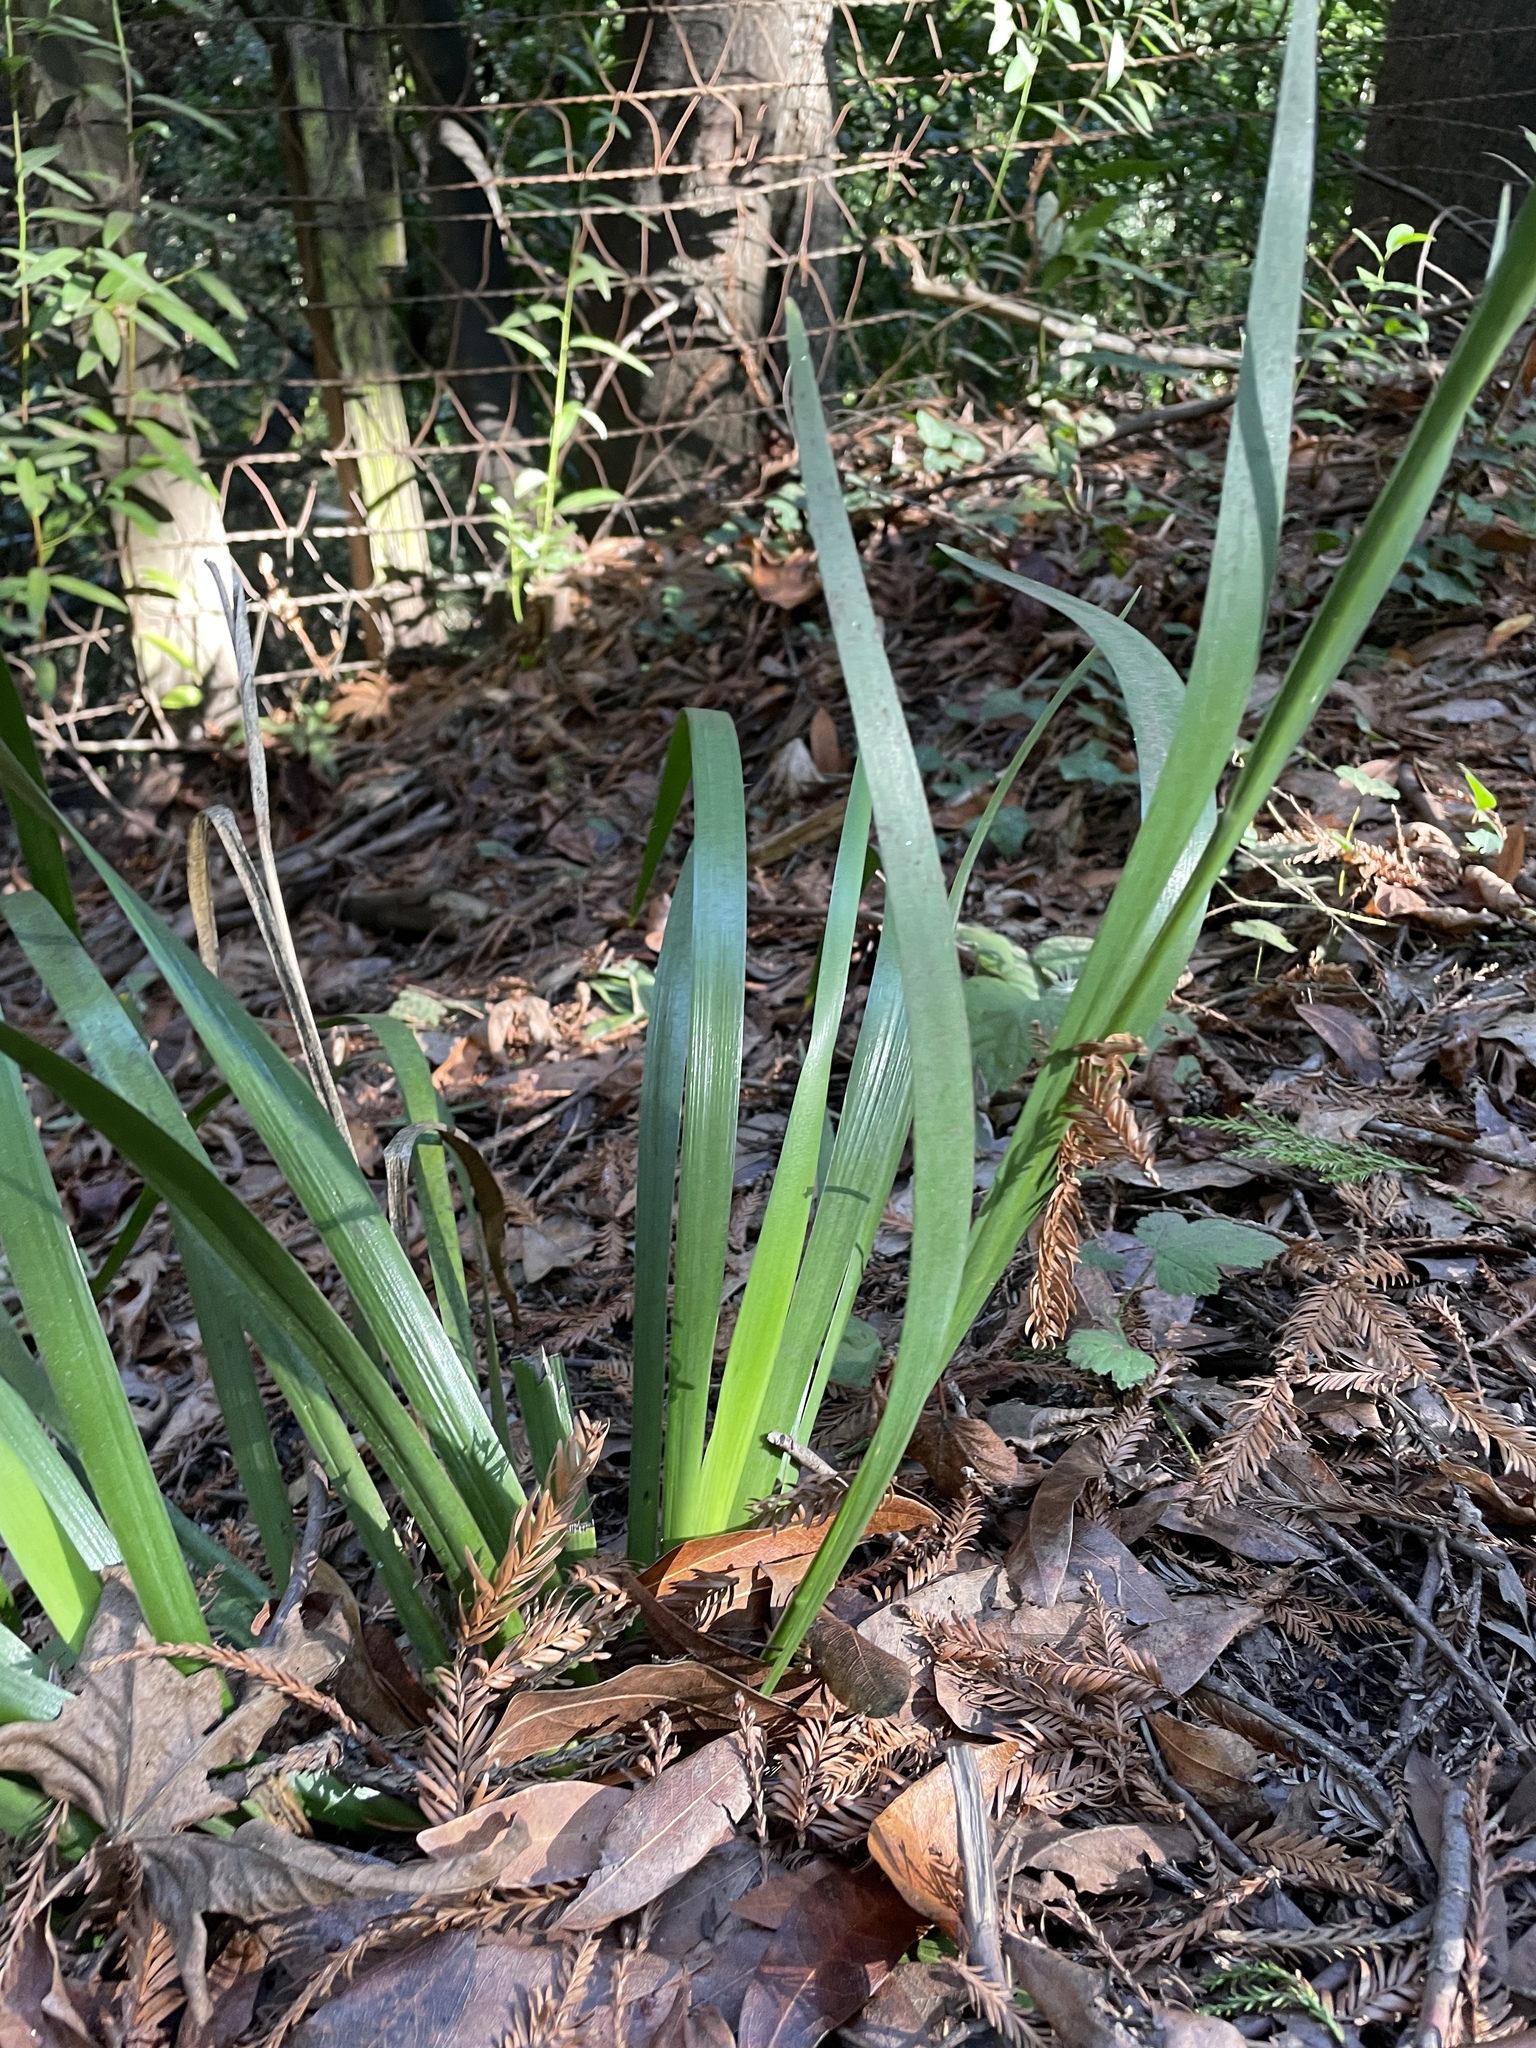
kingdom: Plantae
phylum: Tracheophyta
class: Liliopsida
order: Asparagales
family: Iridaceae
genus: Iris
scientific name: Iris foetidissima
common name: Stinking iris
